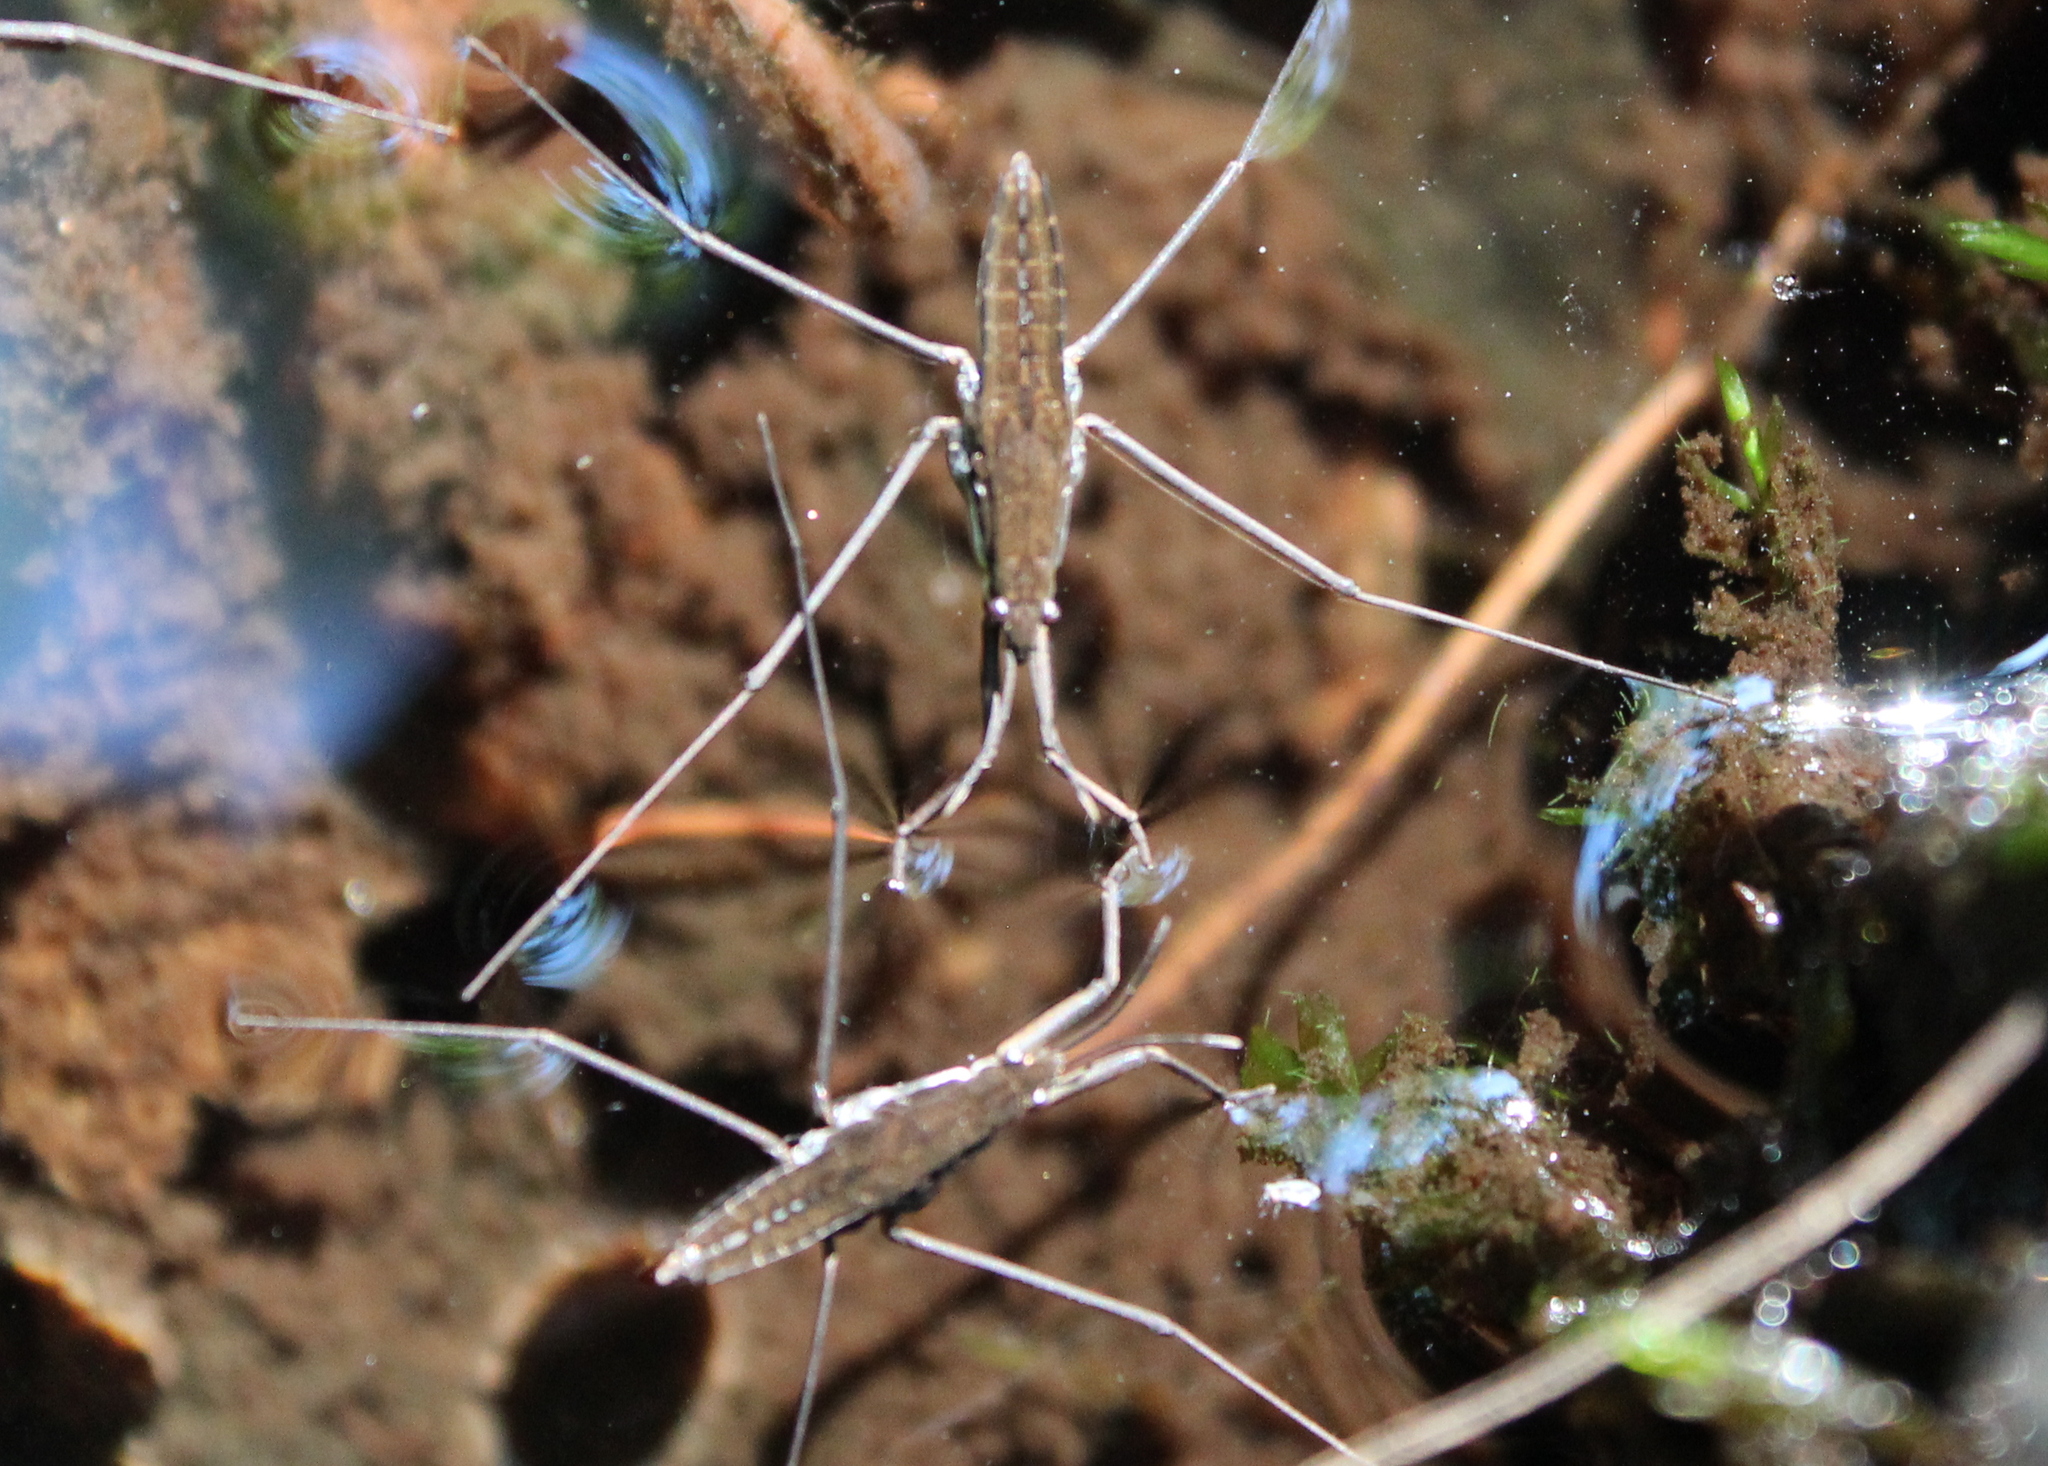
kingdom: Animalia
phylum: Arthropoda
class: Insecta
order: Hemiptera
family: Gerridae
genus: Aquarius
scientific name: Aquarius remigis
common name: Common water strider
